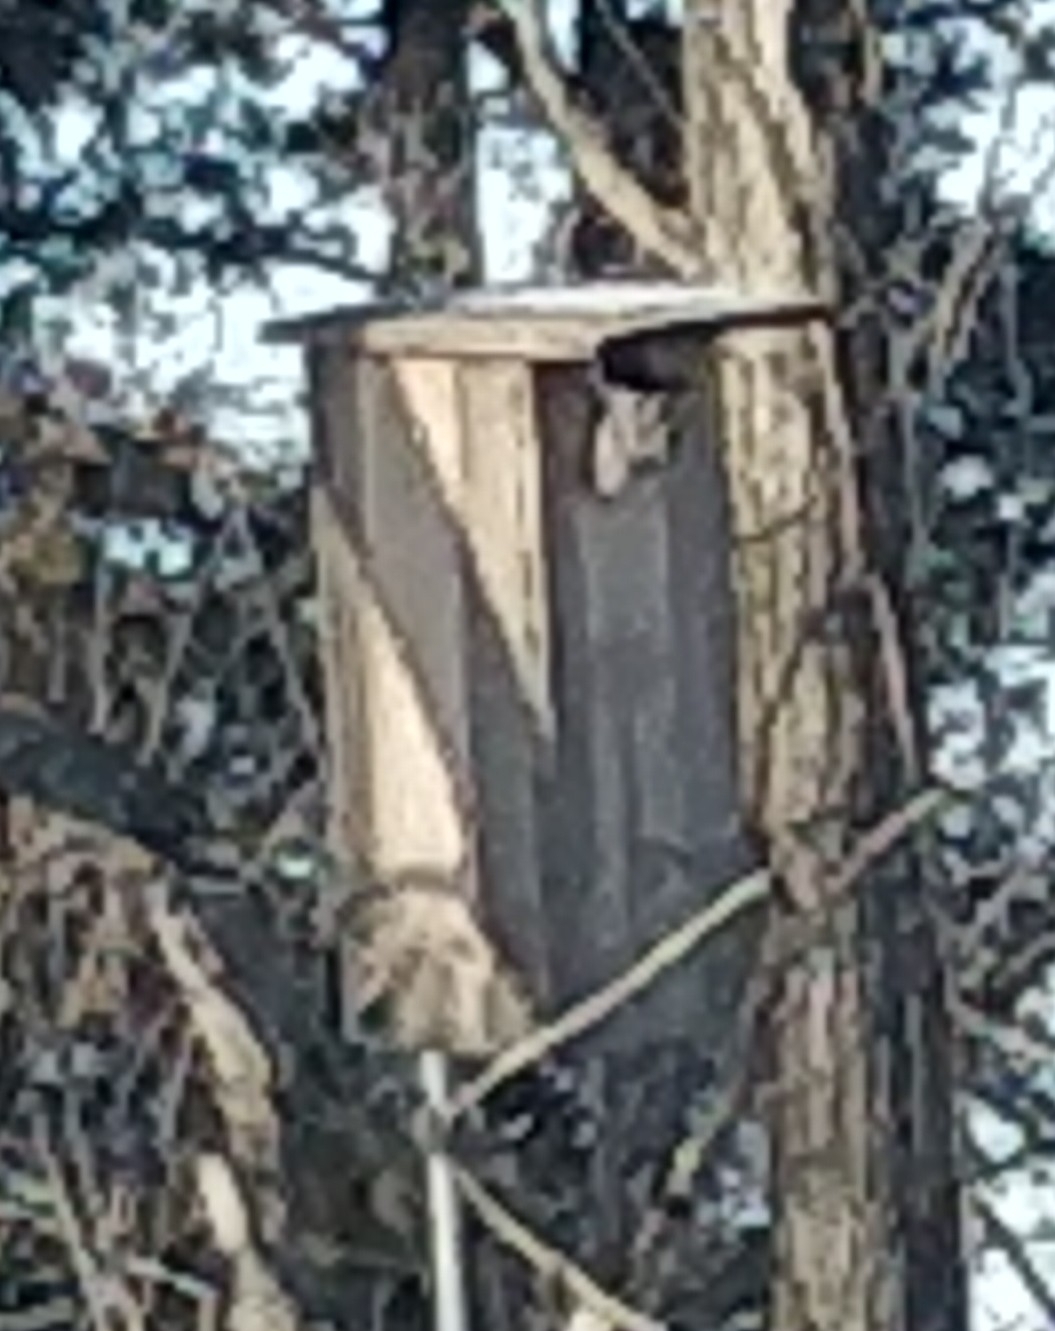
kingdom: Animalia
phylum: Chordata
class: Aves
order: Strigiformes
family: Strigidae
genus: Megascops
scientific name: Megascops asio
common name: Eastern screech-owl
